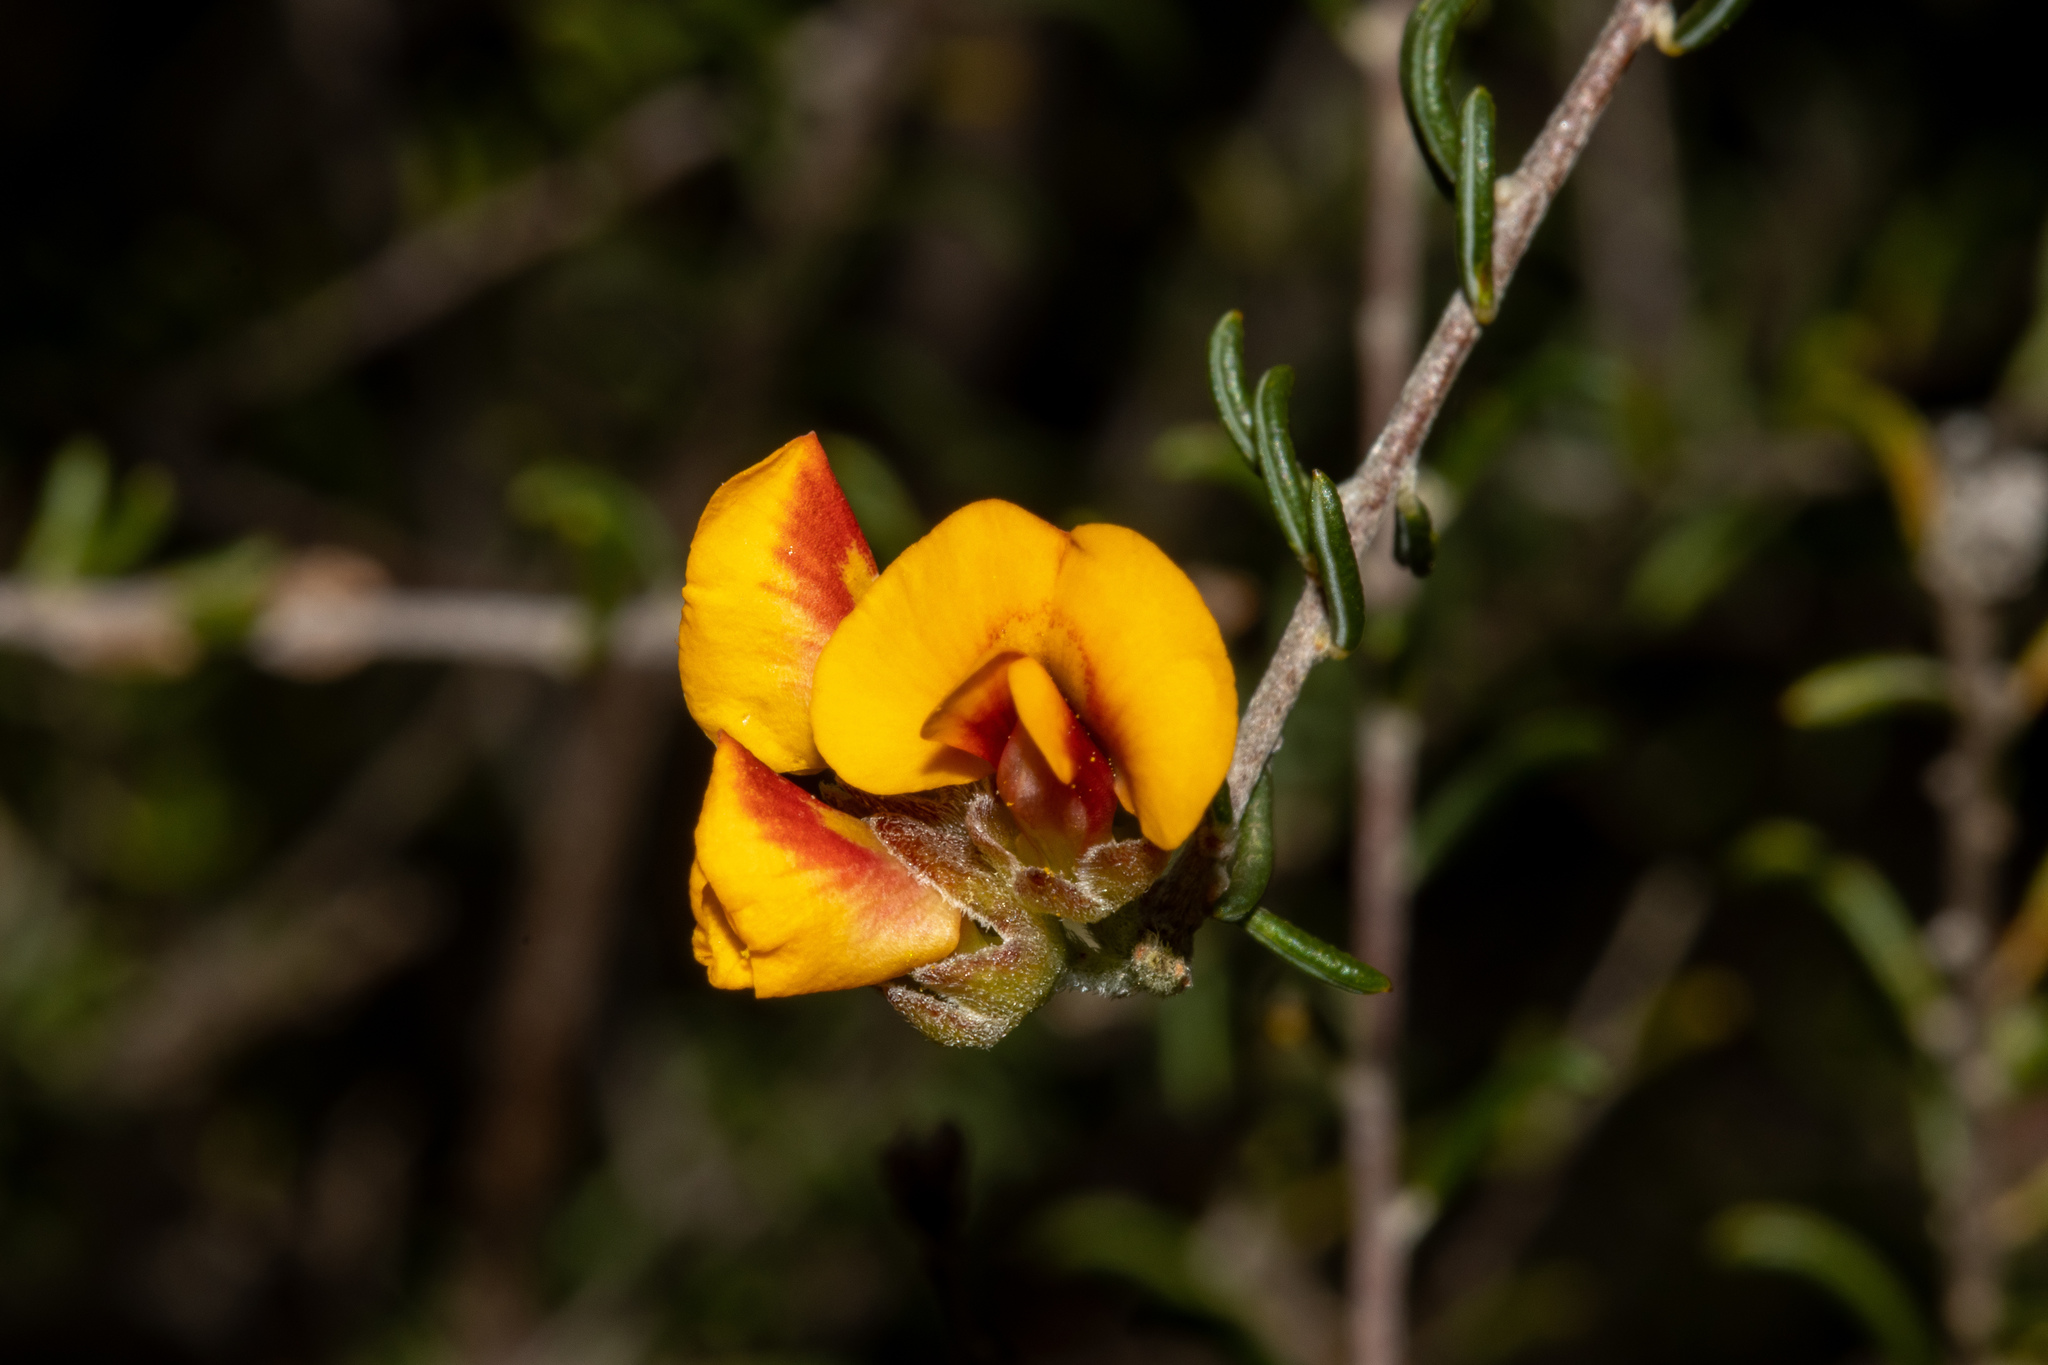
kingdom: Plantae
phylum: Tracheophyta
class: Magnoliopsida
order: Fabales
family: Fabaceae
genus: Dillwynia
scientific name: Dillwynia uncinata
